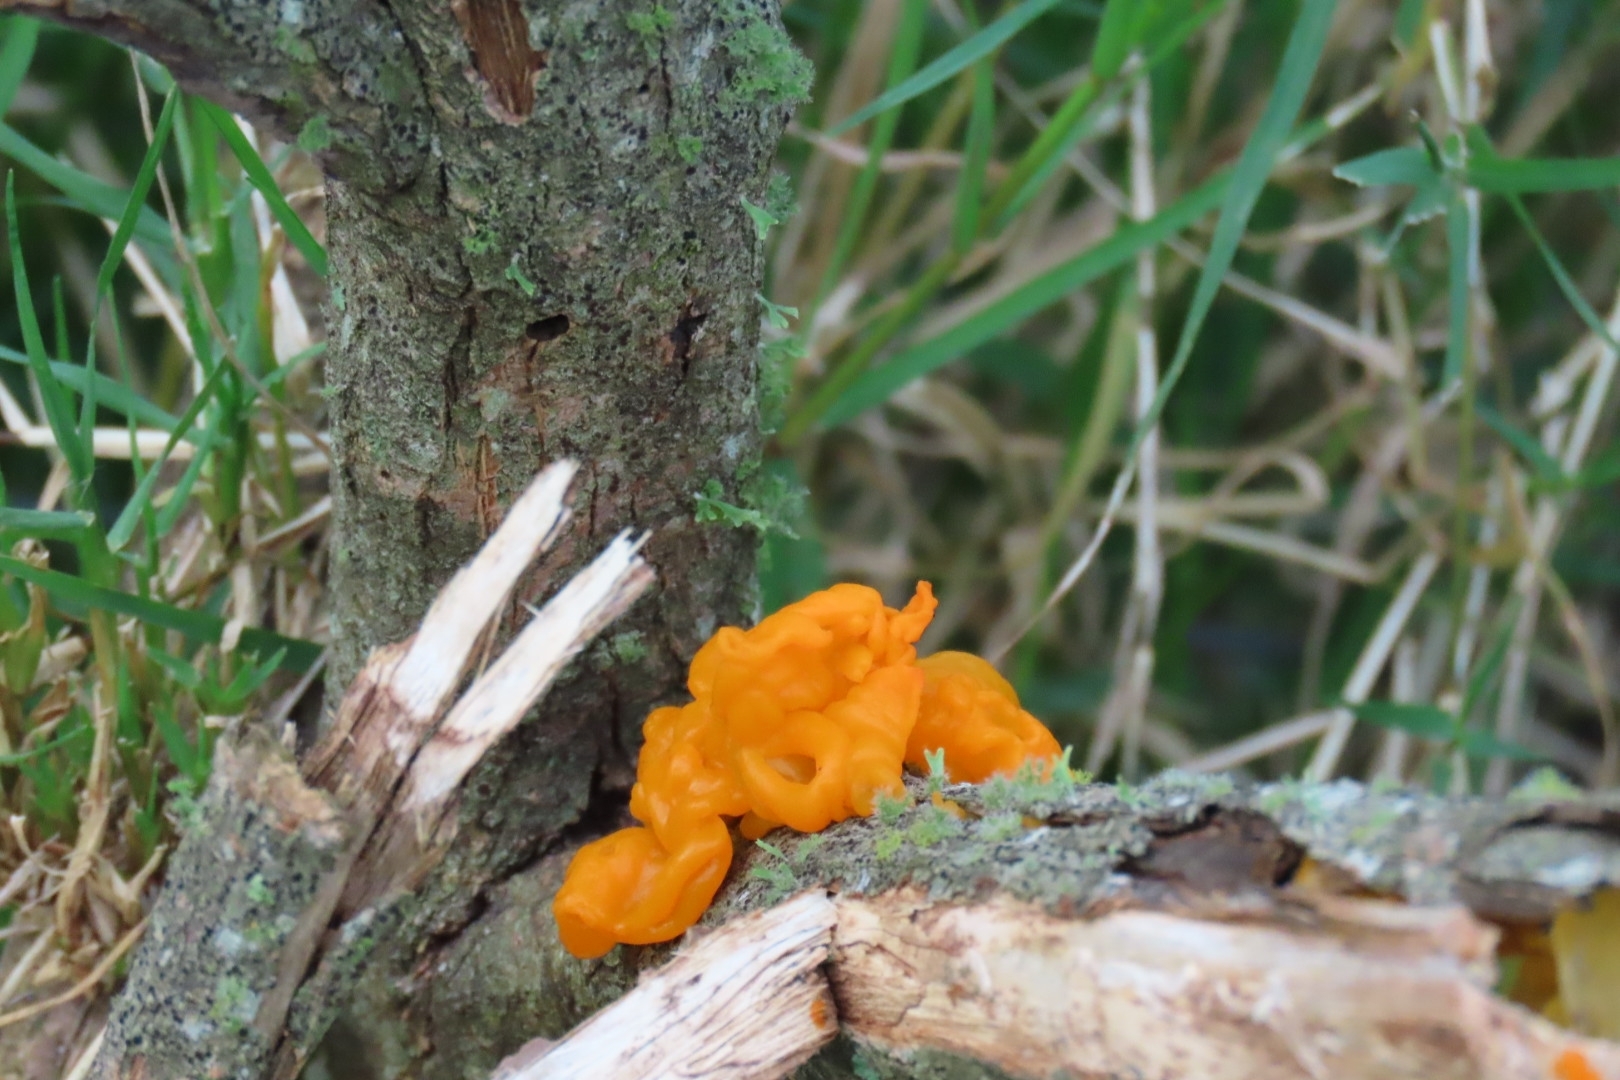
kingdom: Fungi
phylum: Basidiomycota
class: Tremellomycetes
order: Tremellales
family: Tremellaceae
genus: Tremella
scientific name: Tremella mesenterica
